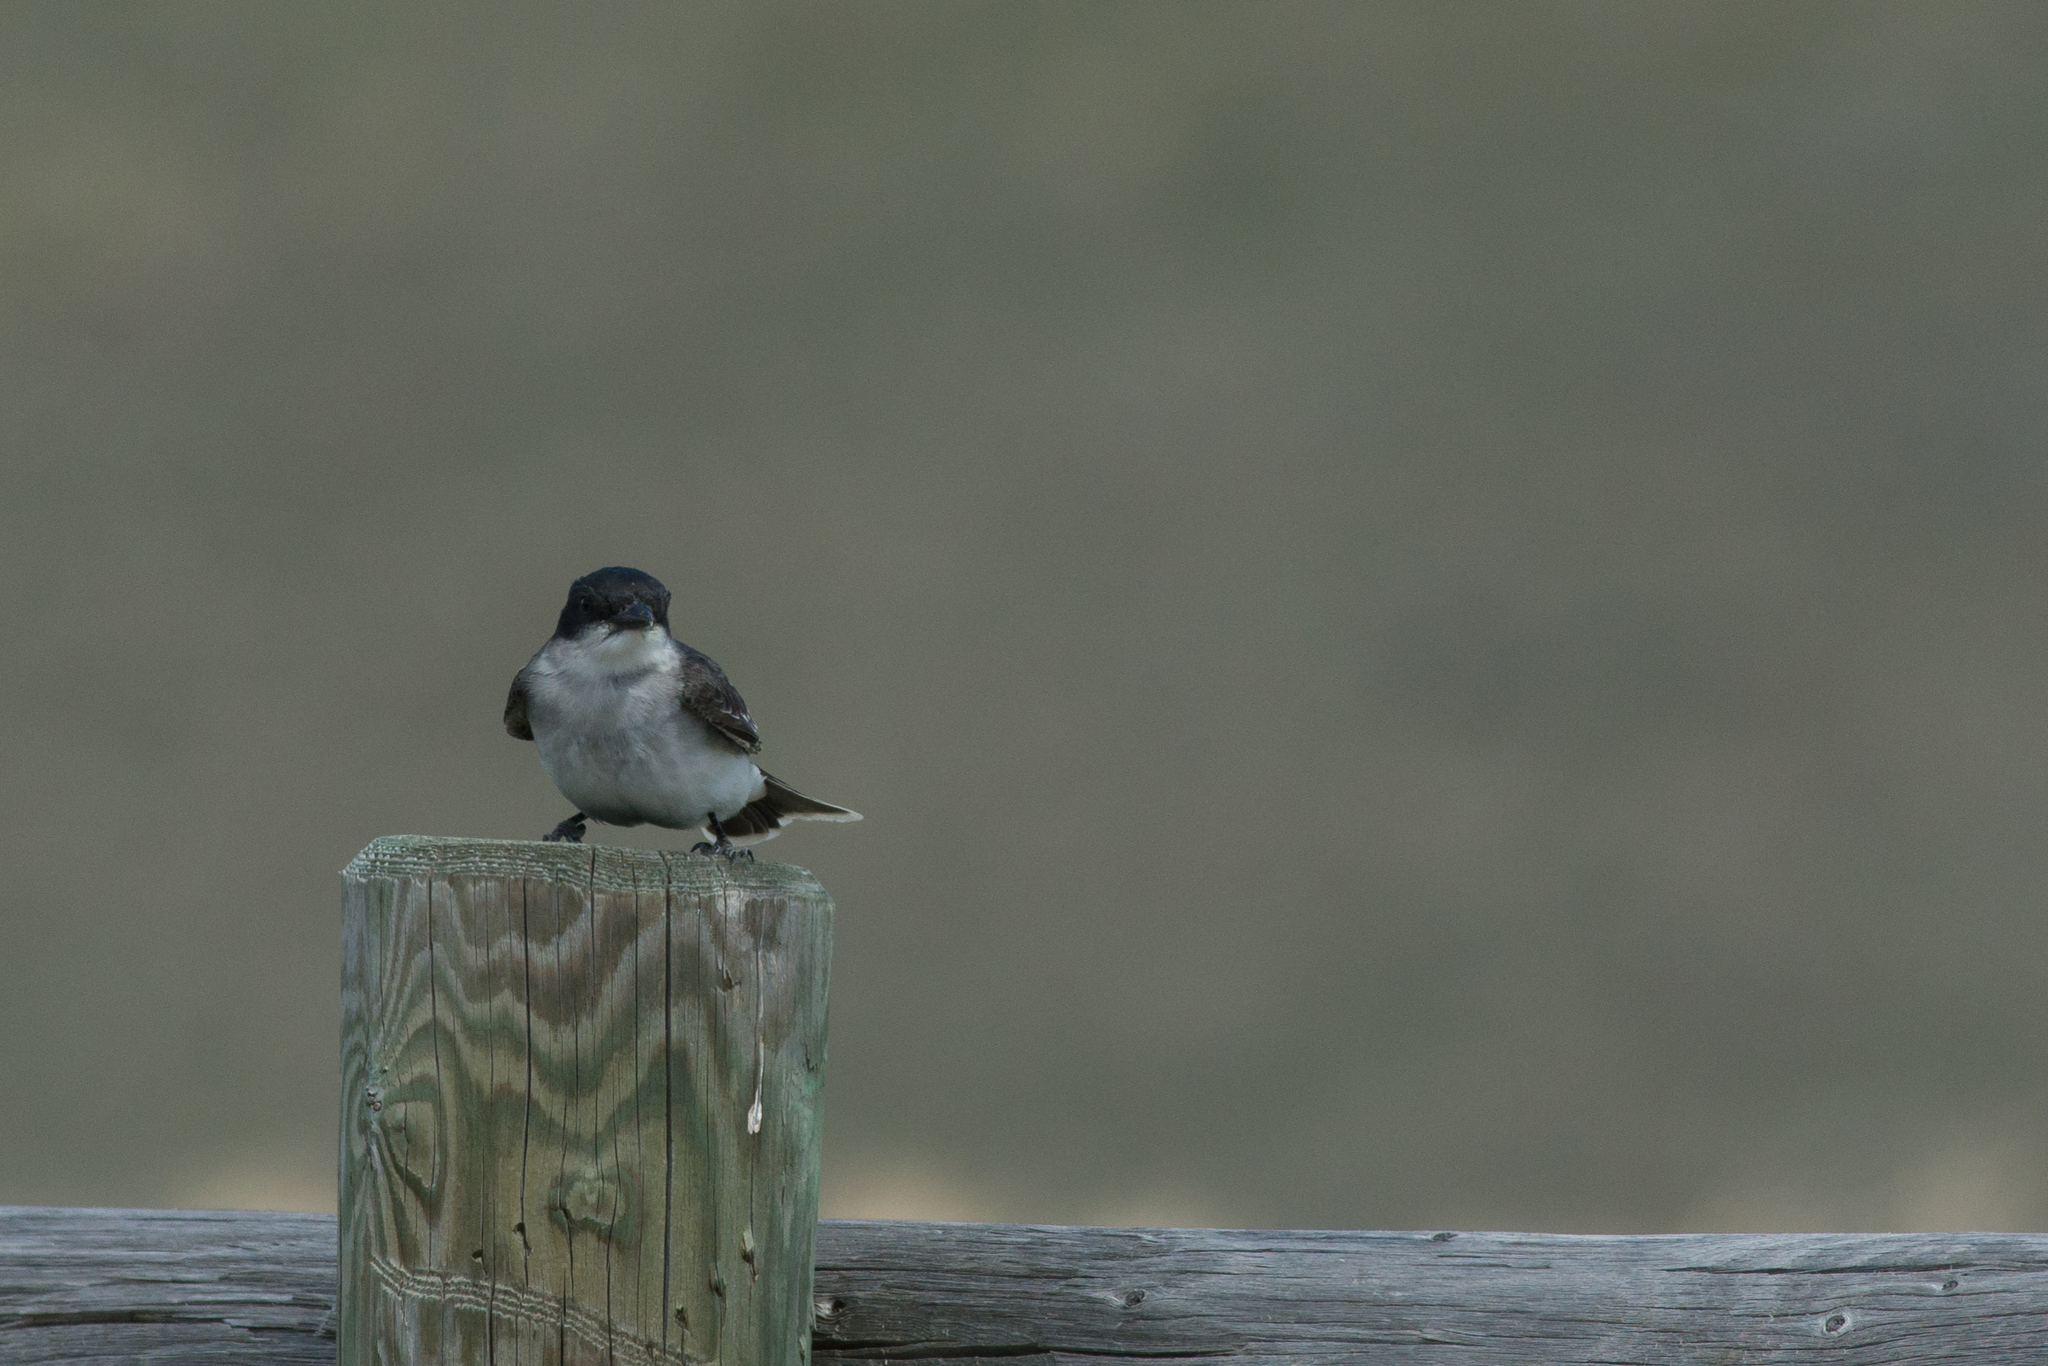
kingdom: Animalia
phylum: Chordata
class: Aves
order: Passeriformes
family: Tyrannidae
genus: Tyrannus
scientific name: Tyrannus tyrannus
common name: Eastern kingbird
